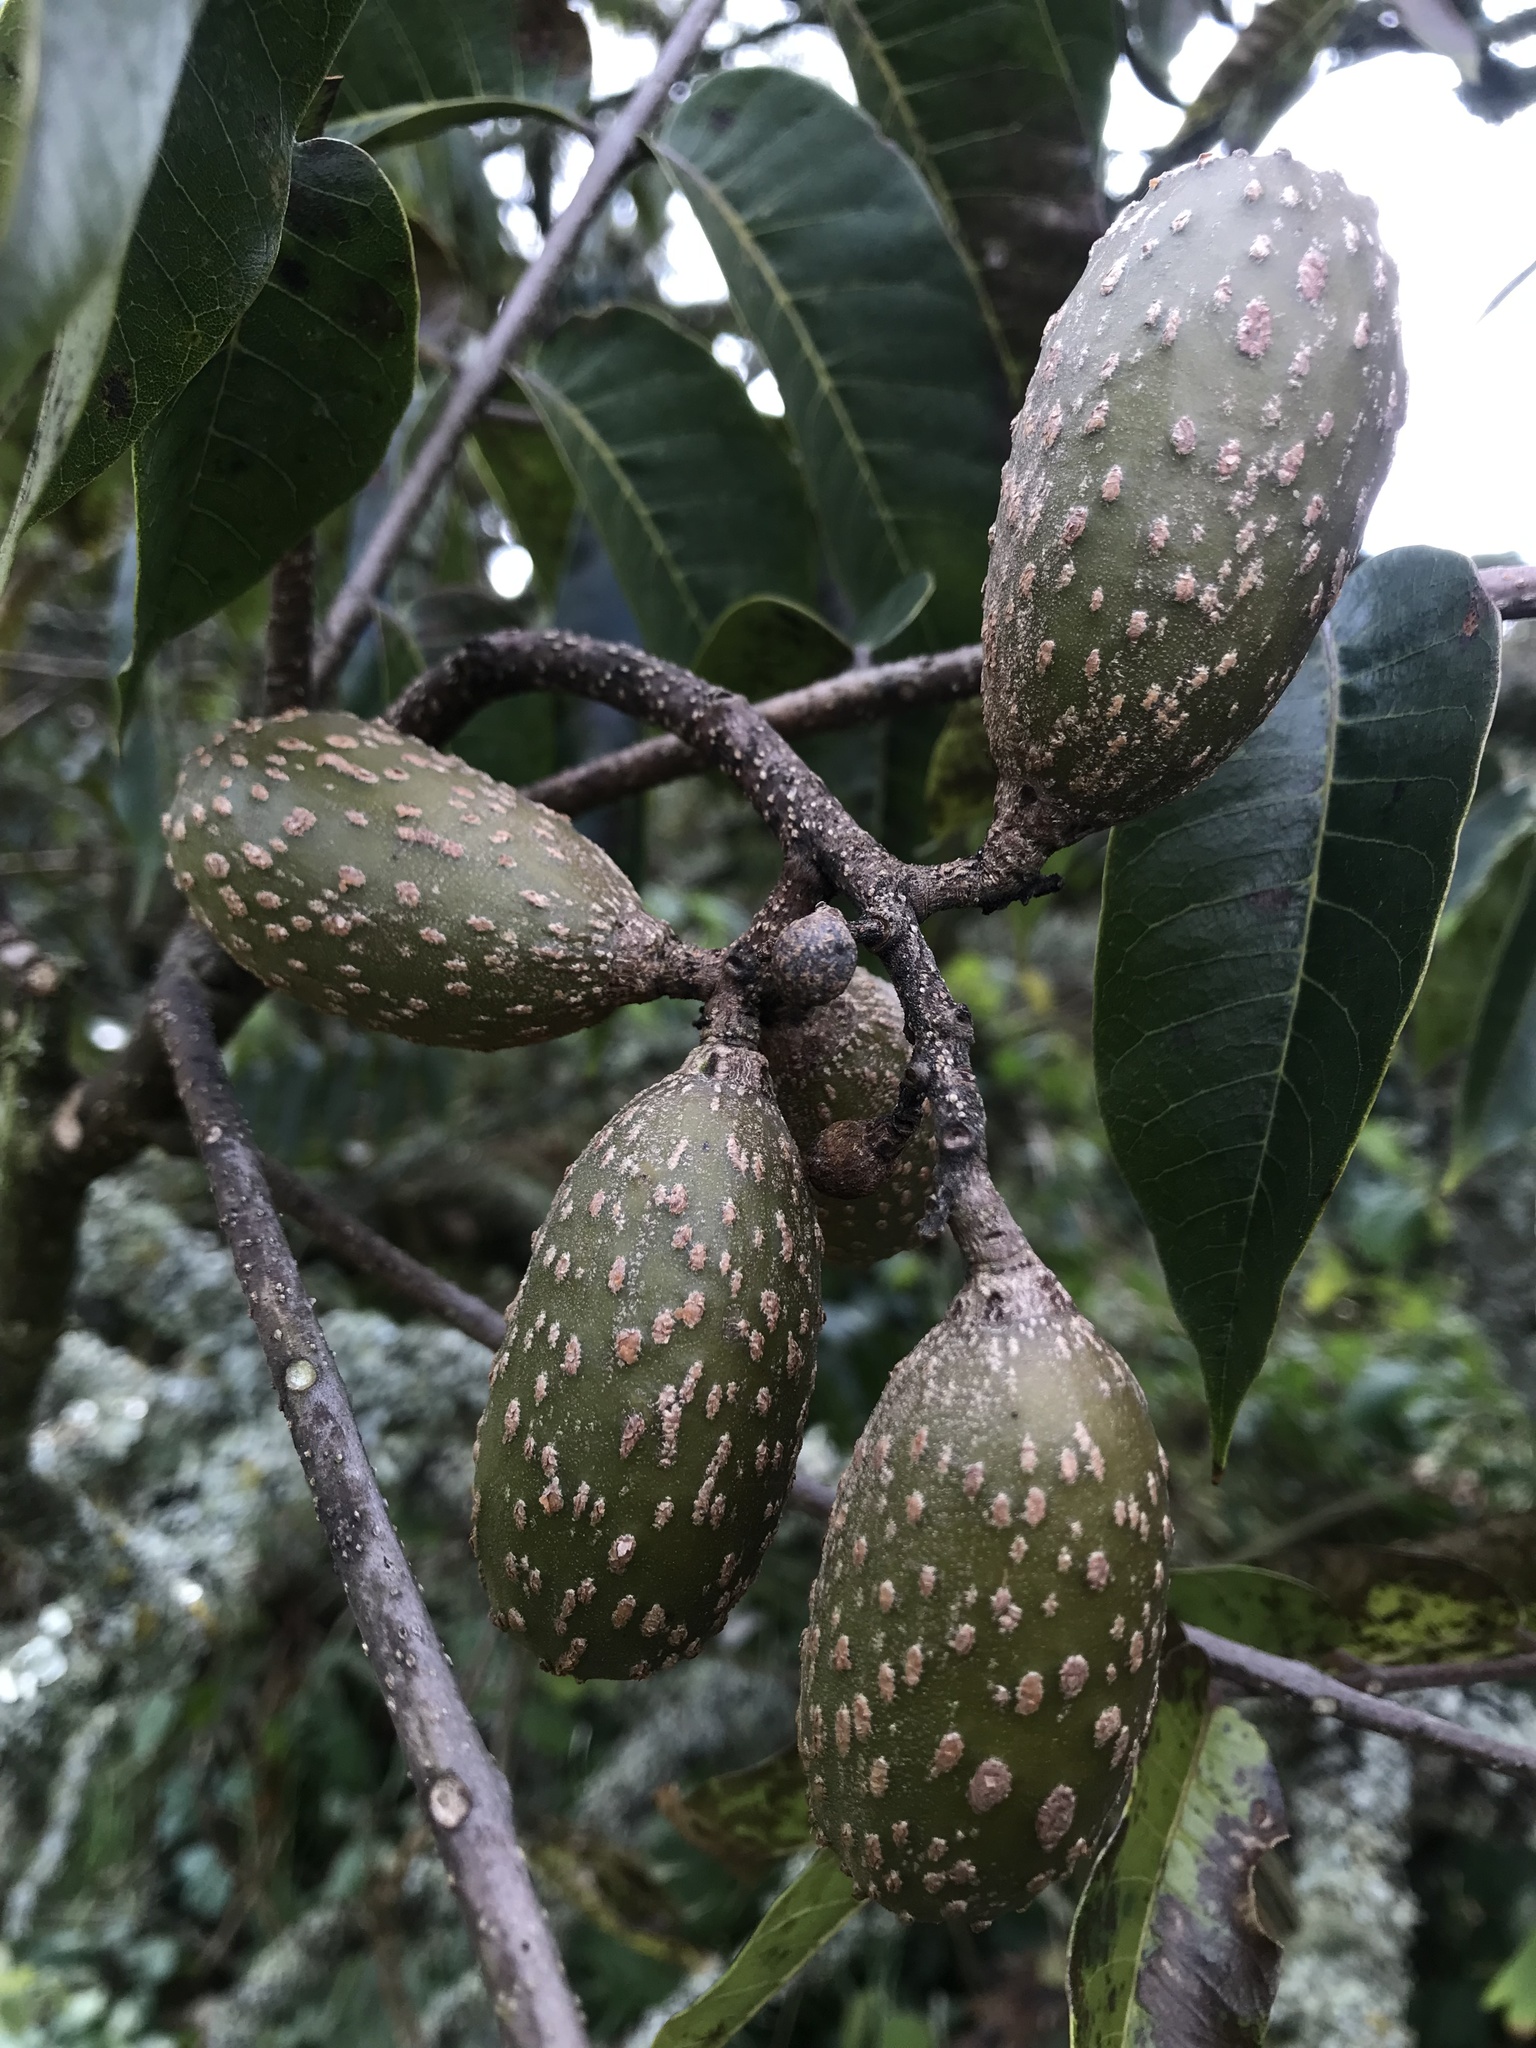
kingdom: Plantae
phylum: Tracheophyta
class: Magnoliopsida
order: Sapindales
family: Meliaceae
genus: Cedrela
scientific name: Cedrela montana
